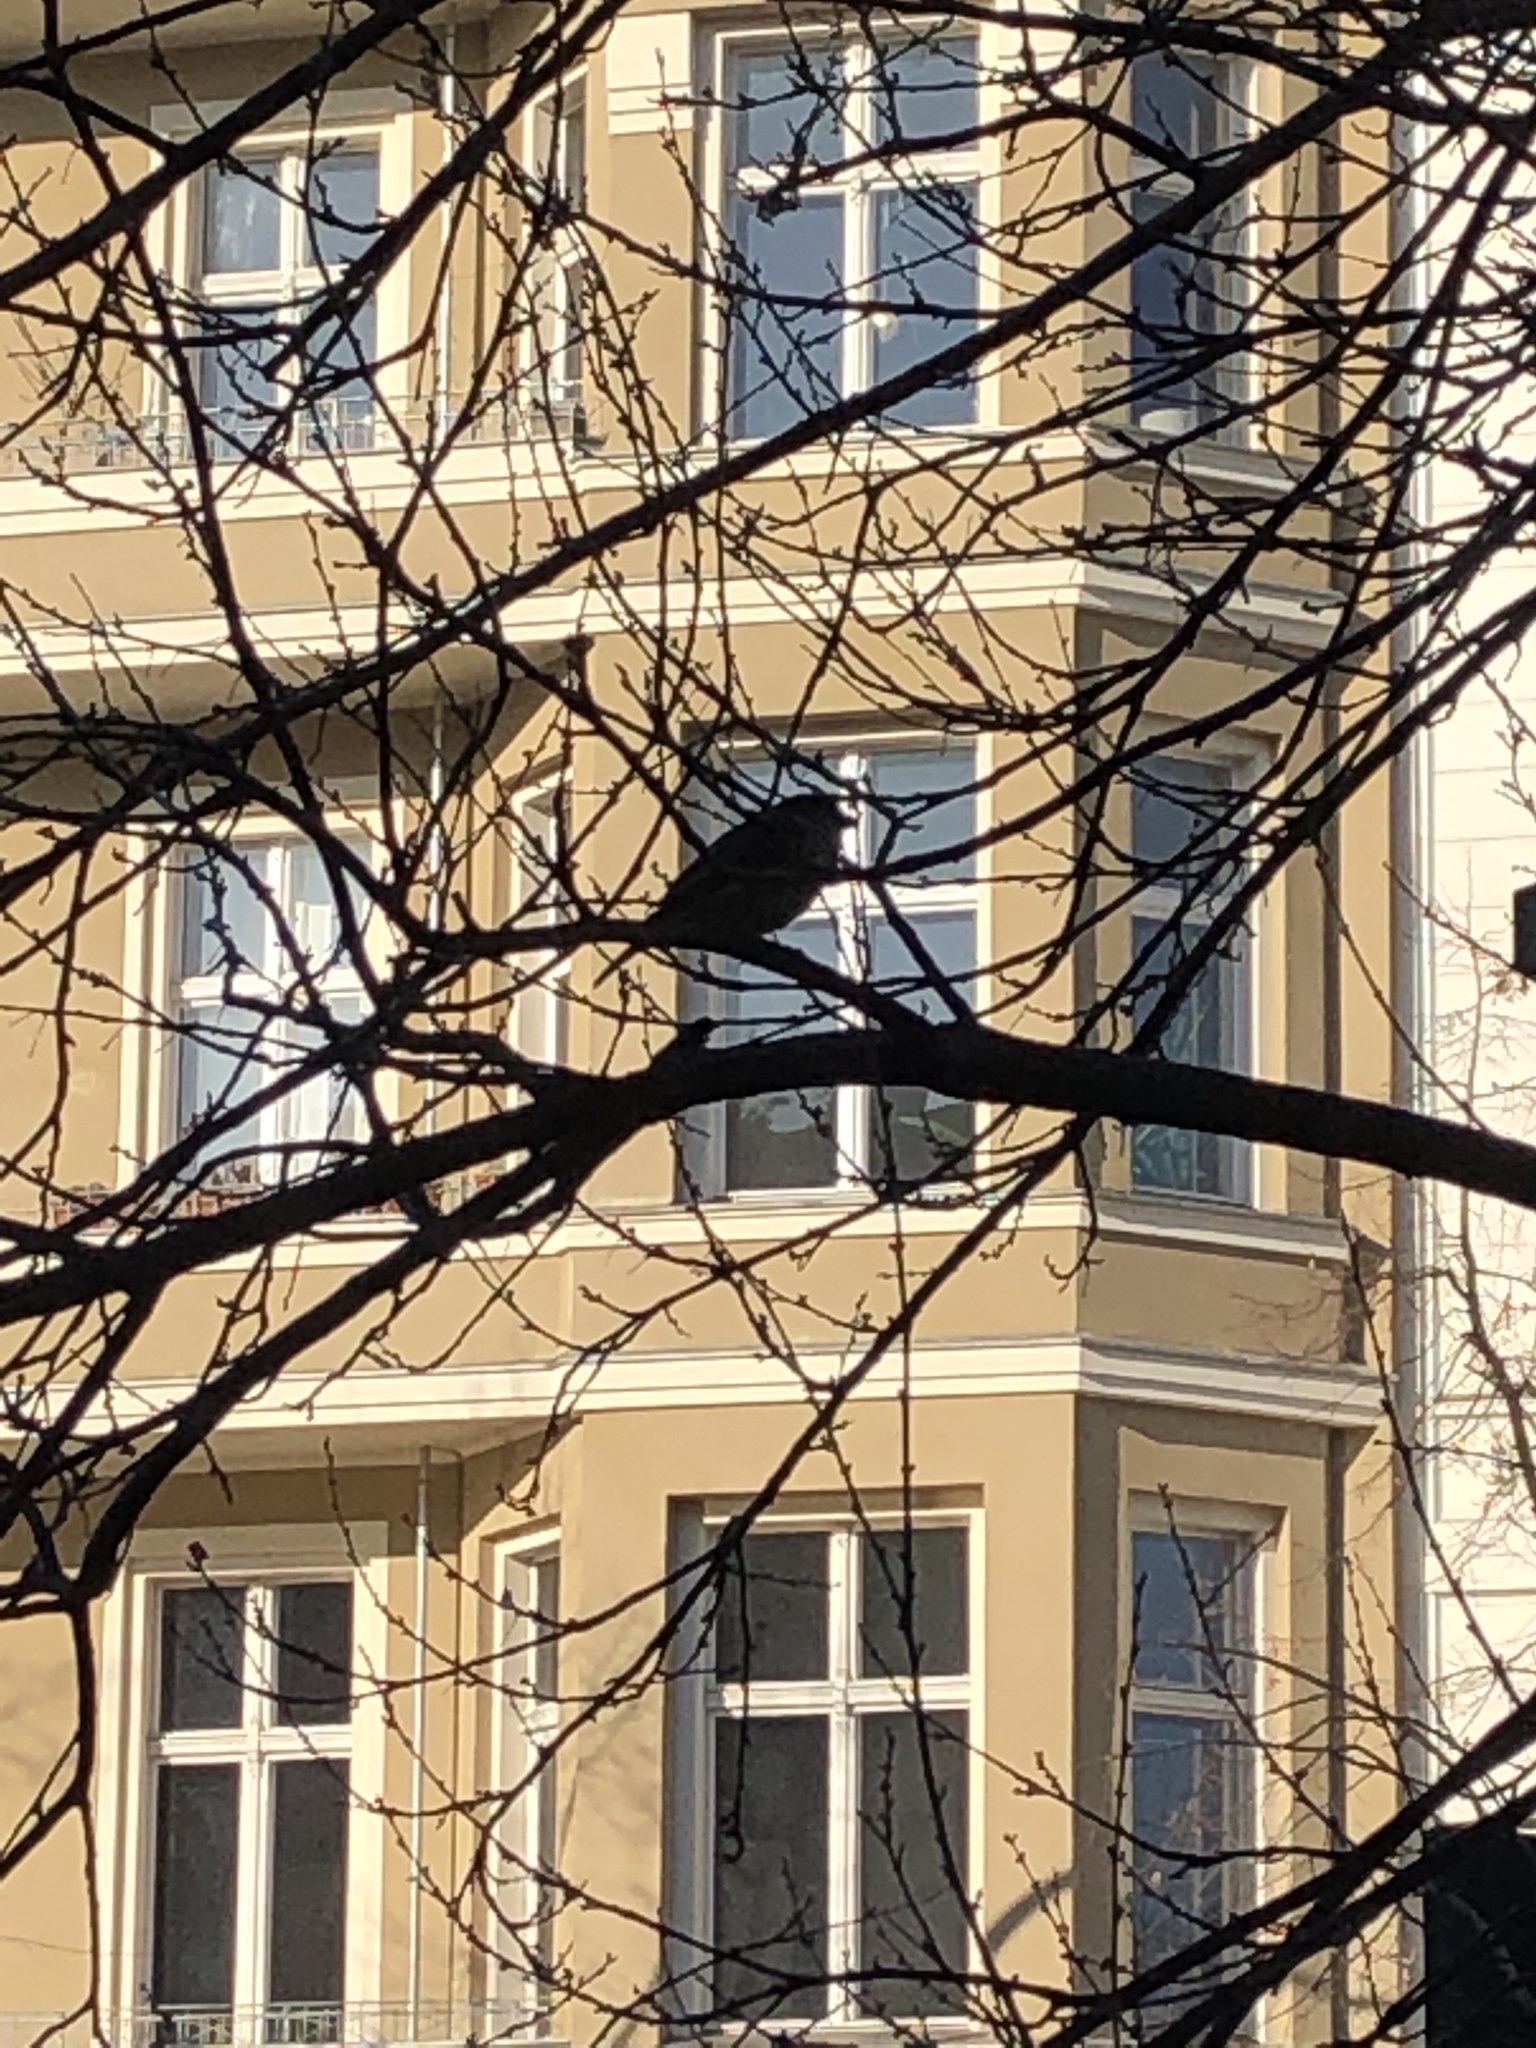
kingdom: Animalia
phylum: Chordata
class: Aves
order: Passeriformes
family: Passeridae
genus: Passer
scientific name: Passer domesticus
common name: House sparrow
